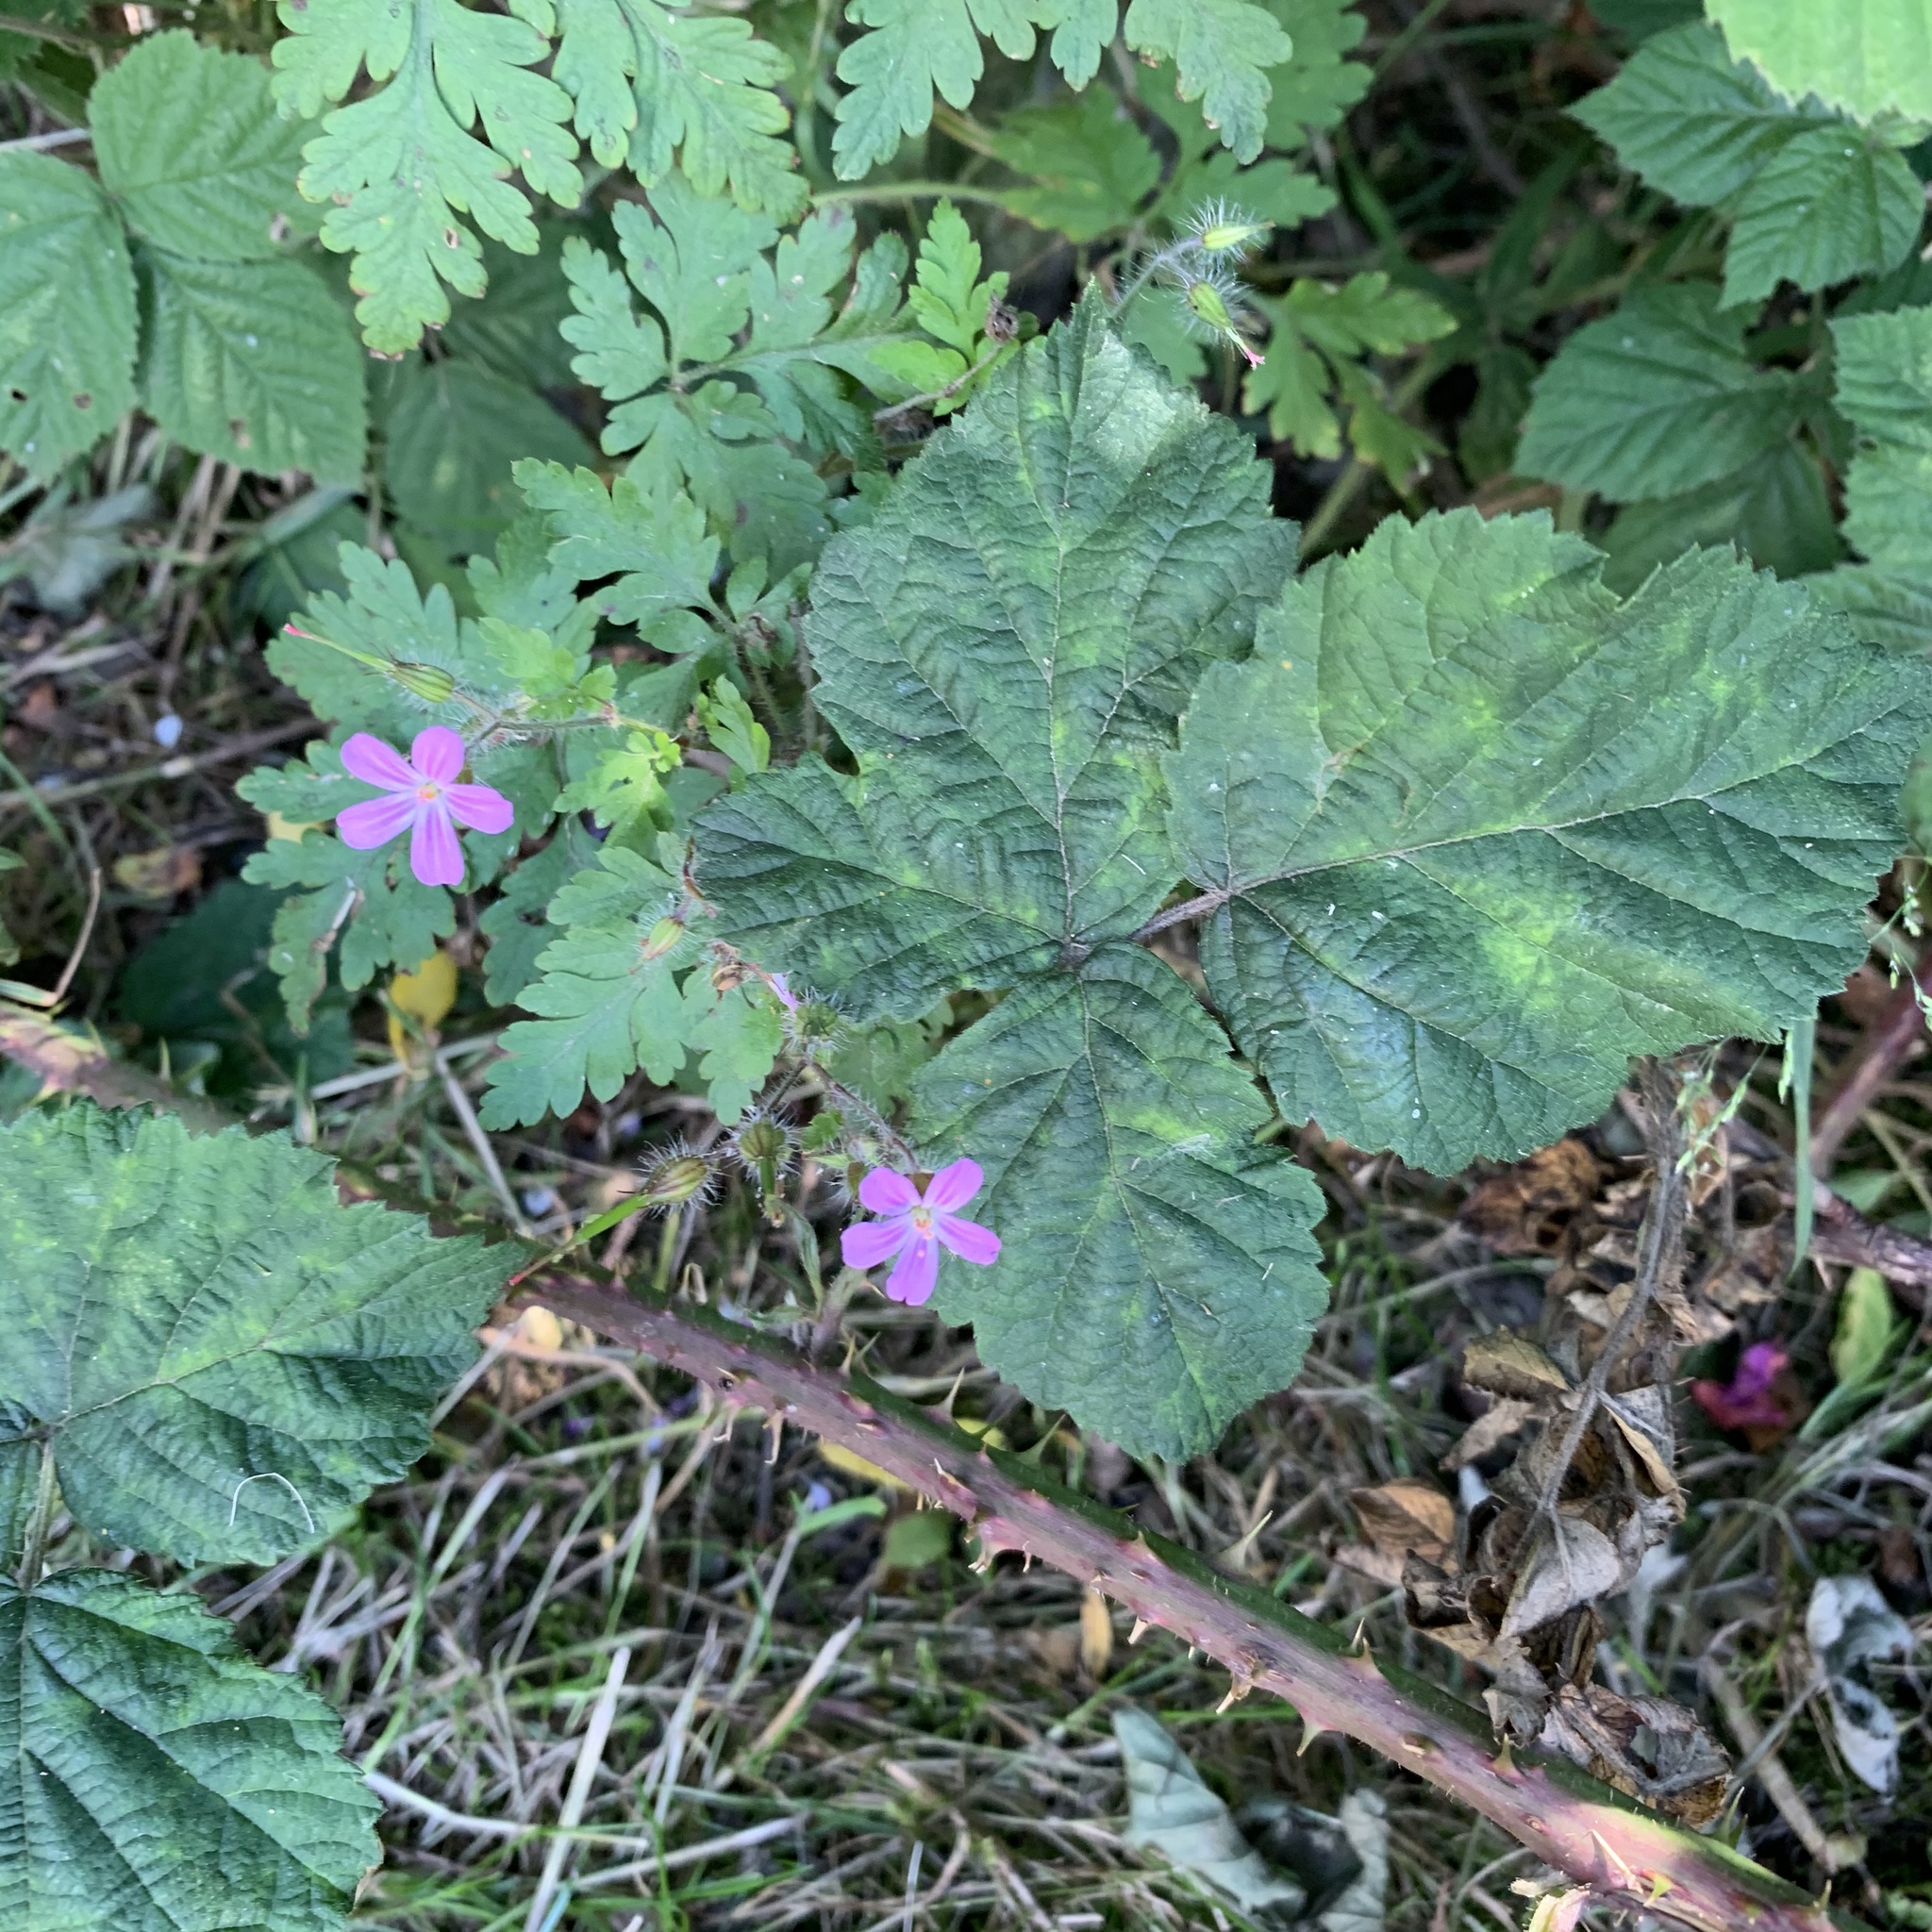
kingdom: Plantae
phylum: Tracheophyta
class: Magnoliopsida
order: Geraniales
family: Geraniaceae
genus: Geranium
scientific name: Geranium robertianum
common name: Herb-robert
